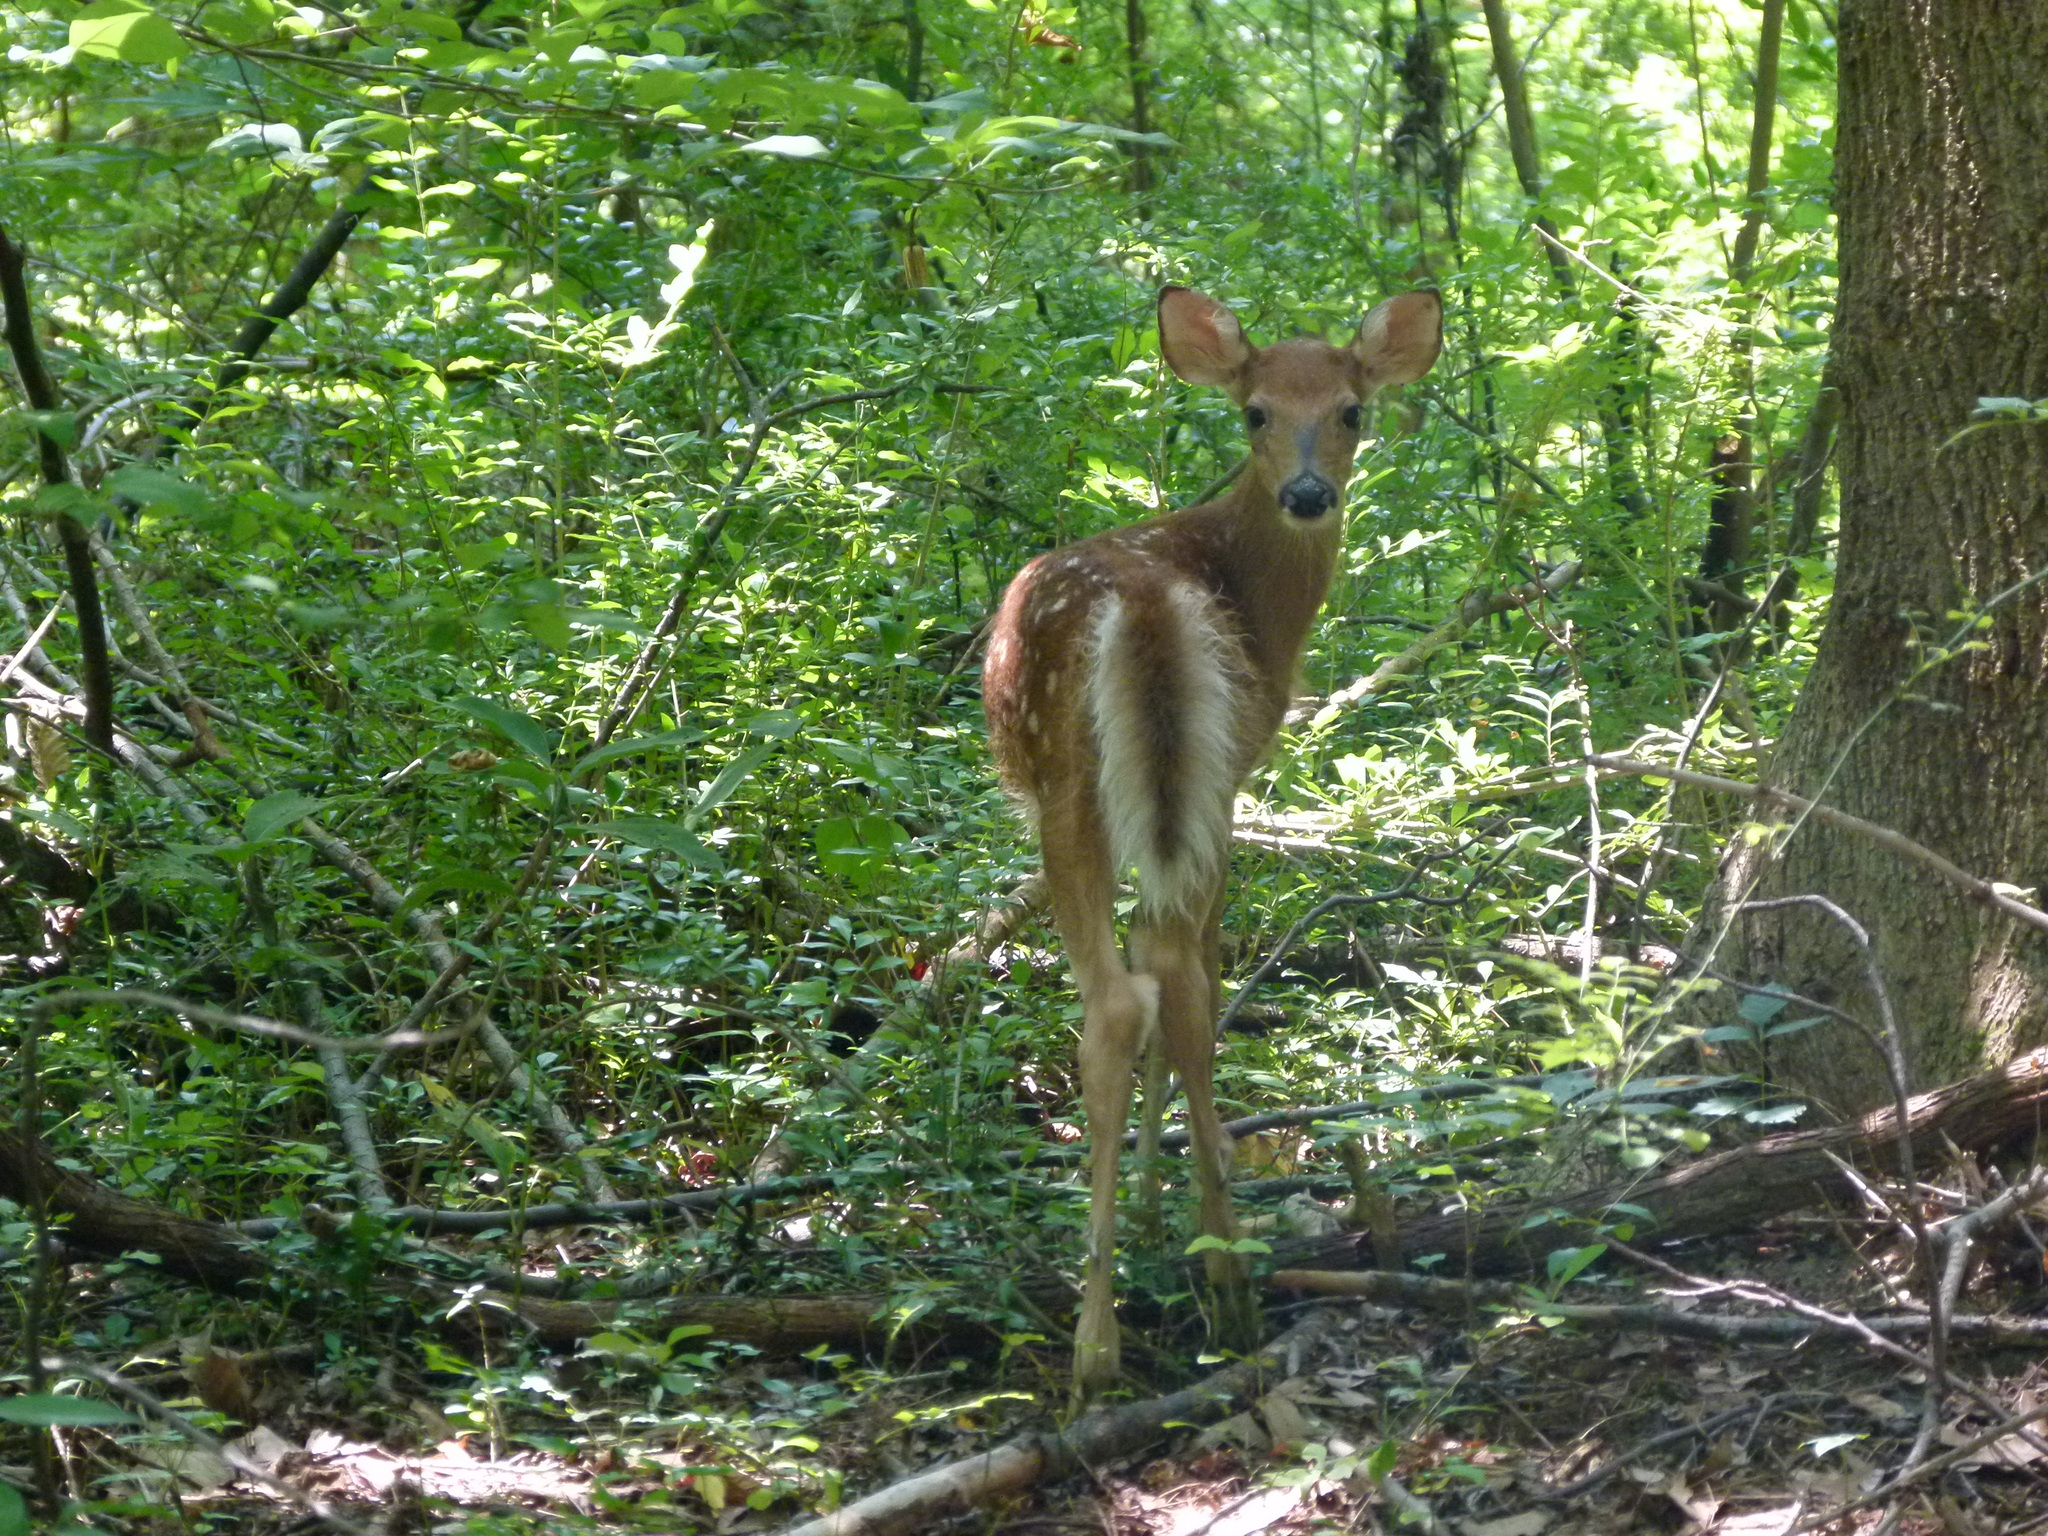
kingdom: Animalia
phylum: Chordata
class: Mammalia
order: Artiodactyla
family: Cervidae
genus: Odocoileus
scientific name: Odocoileus virginianus
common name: White-tailed deer
